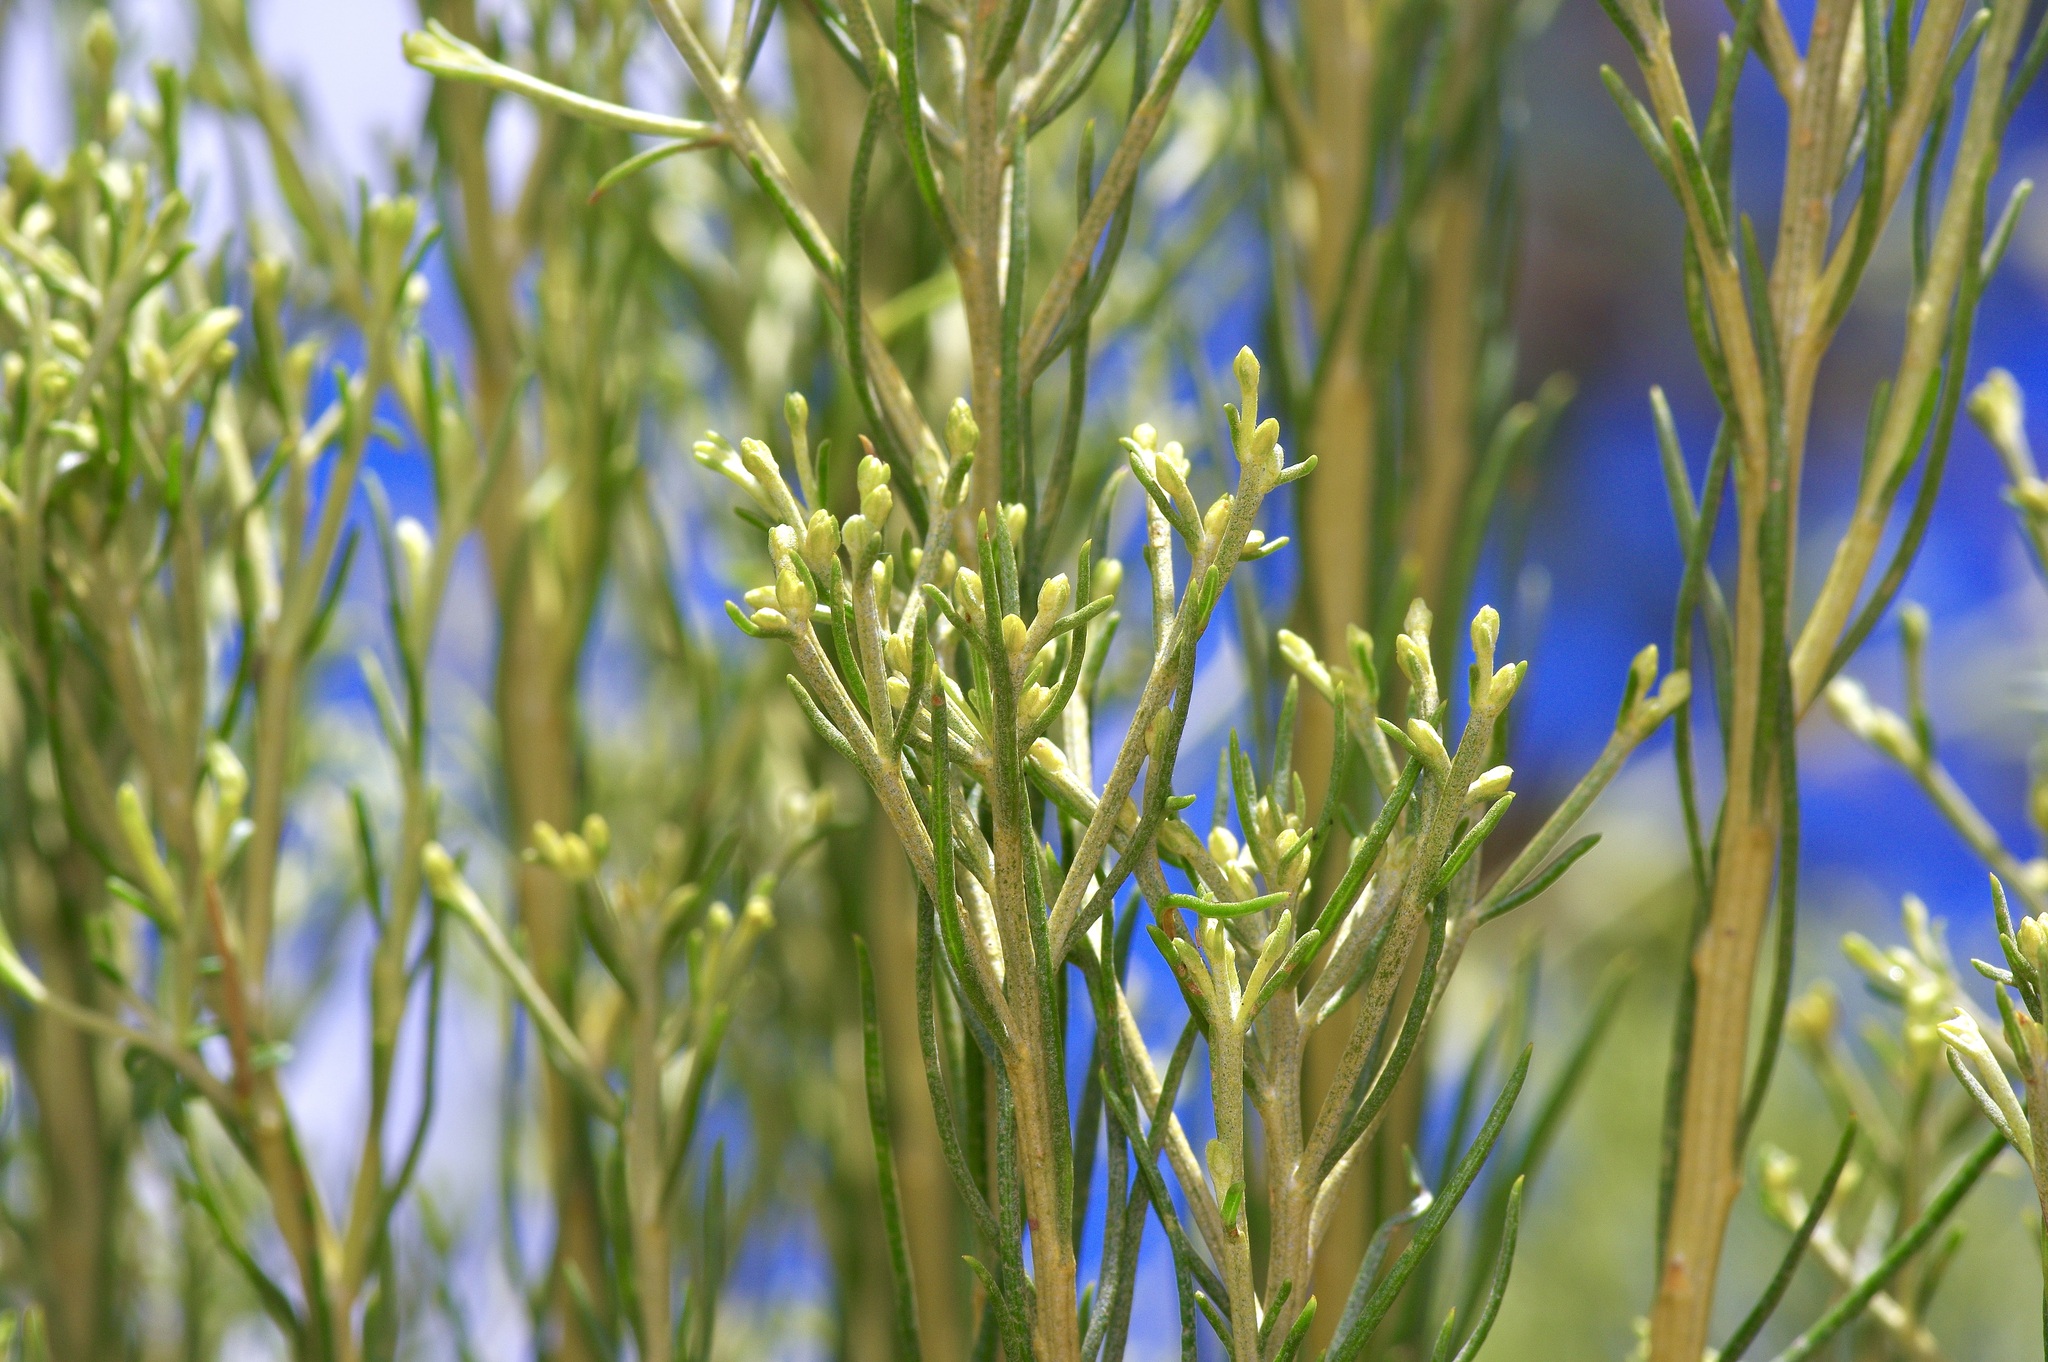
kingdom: Plantae
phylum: Tracheophyta
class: Magnoliopsida
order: Asterales
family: Asteraceae
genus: Ericameria
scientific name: Ericameria nauseosa
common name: Rubber rabbitbrush
